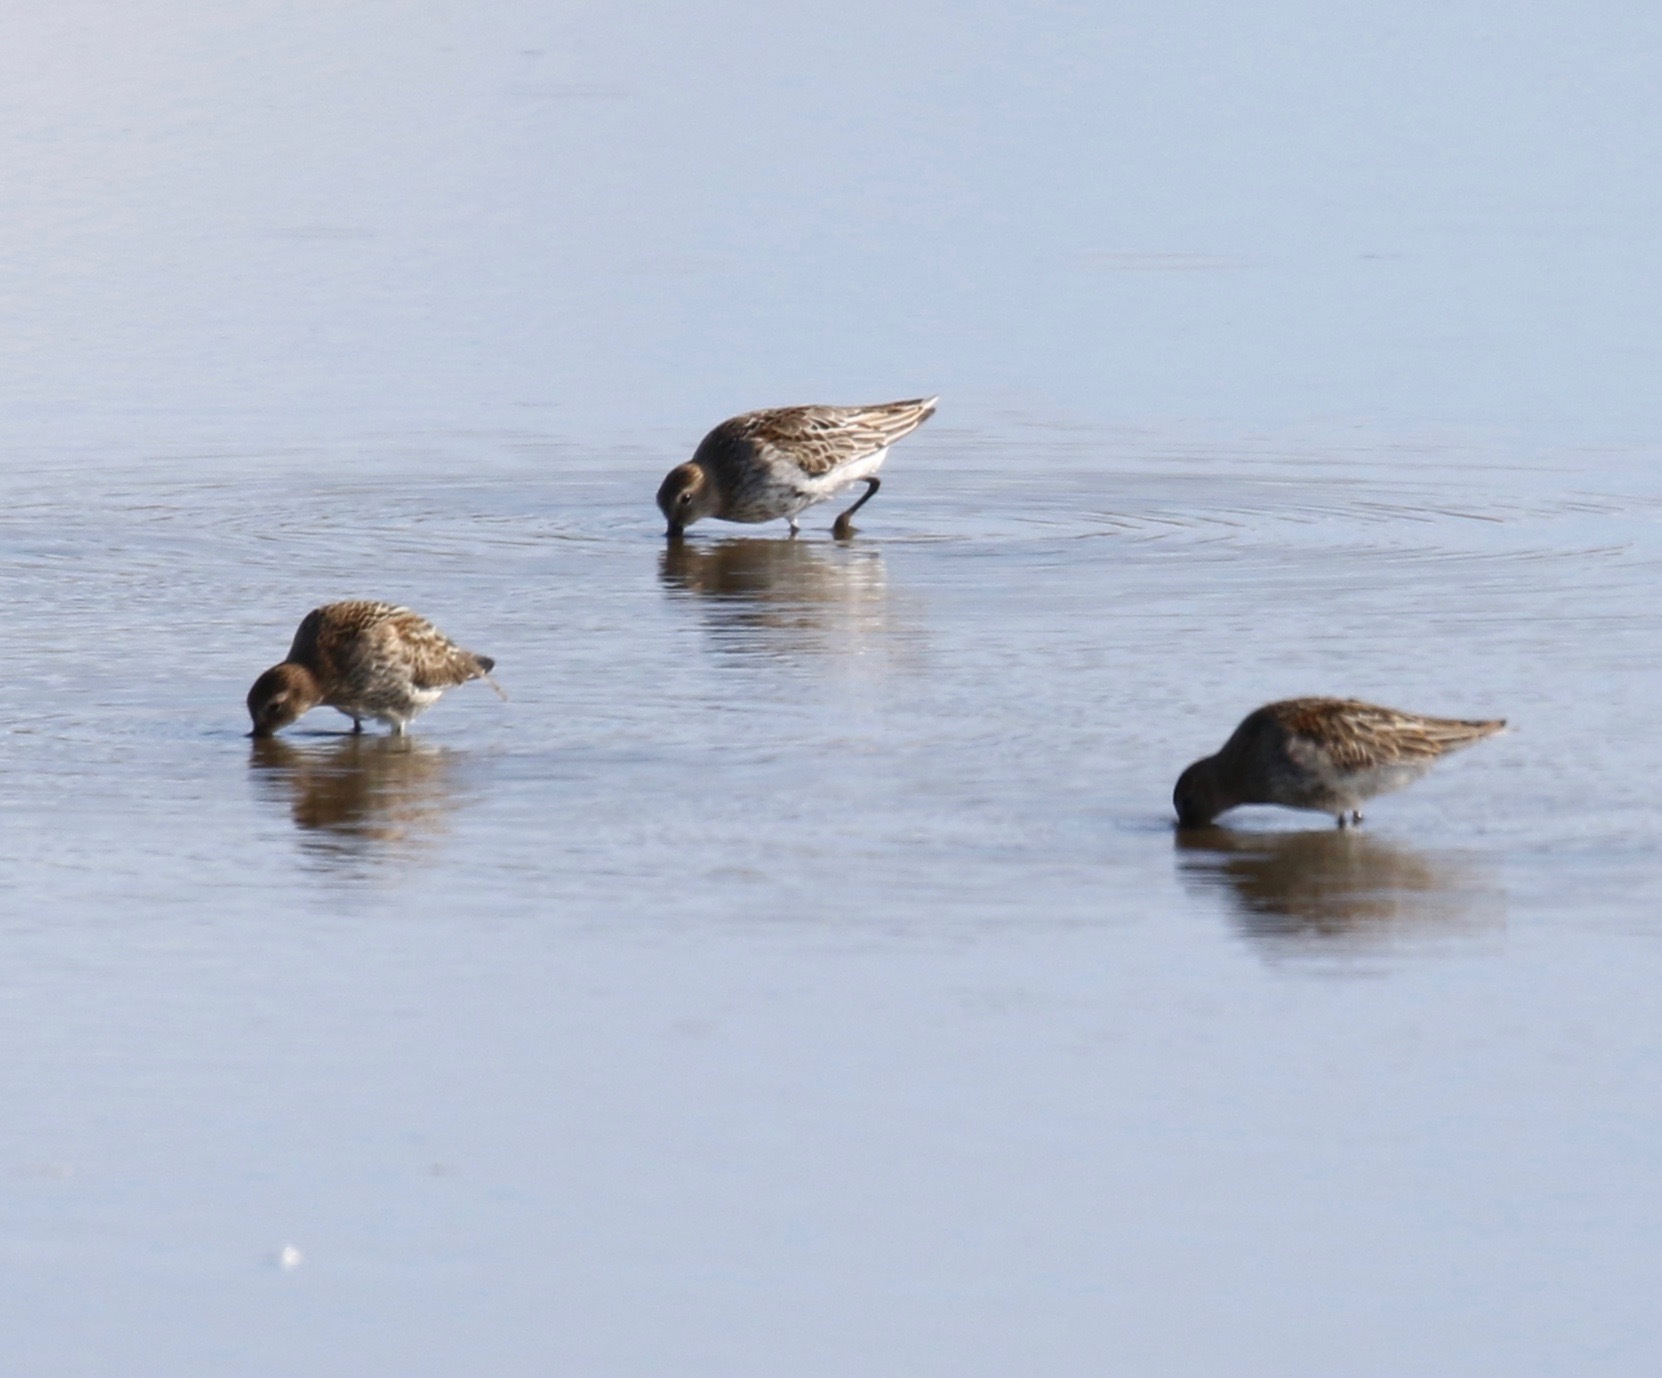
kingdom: Animalia
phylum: Chordata
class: Aves
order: Charadriiformes
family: Scolopacidae
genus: Calidris
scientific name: Calidris alpina
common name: Dunlin
